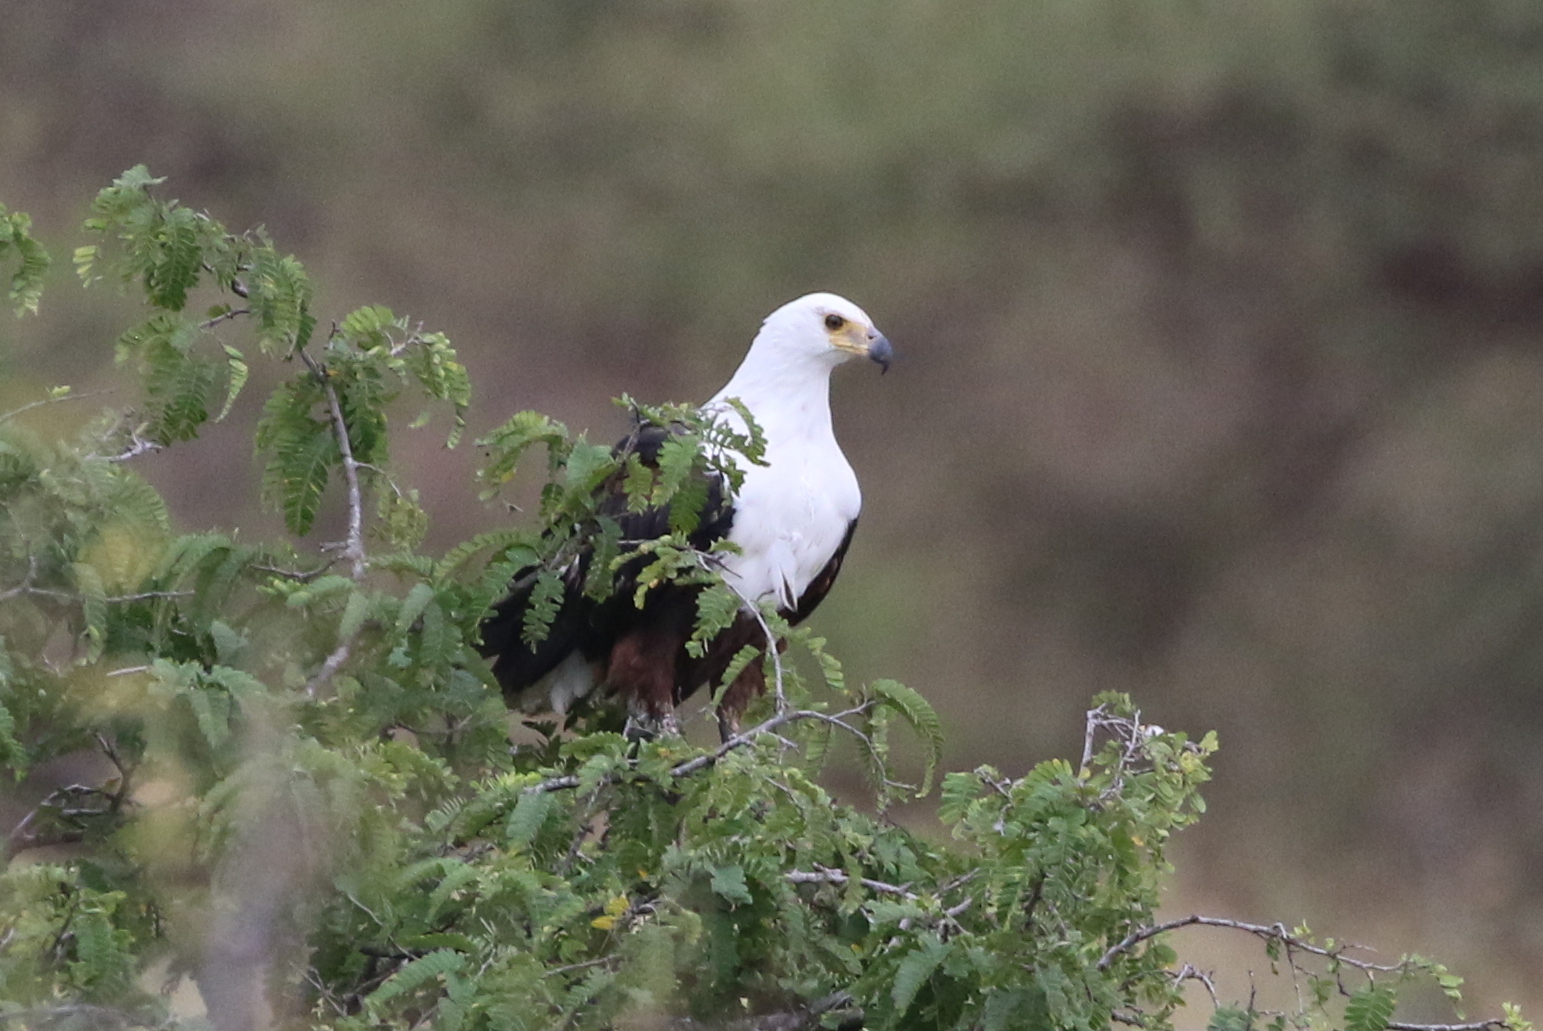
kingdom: Animalia
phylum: Chordata
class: Aves
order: Accipitriformes
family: Accipitridae
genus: Haliaeetus
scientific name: Haliaeetus vocifer
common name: African fish eagle
